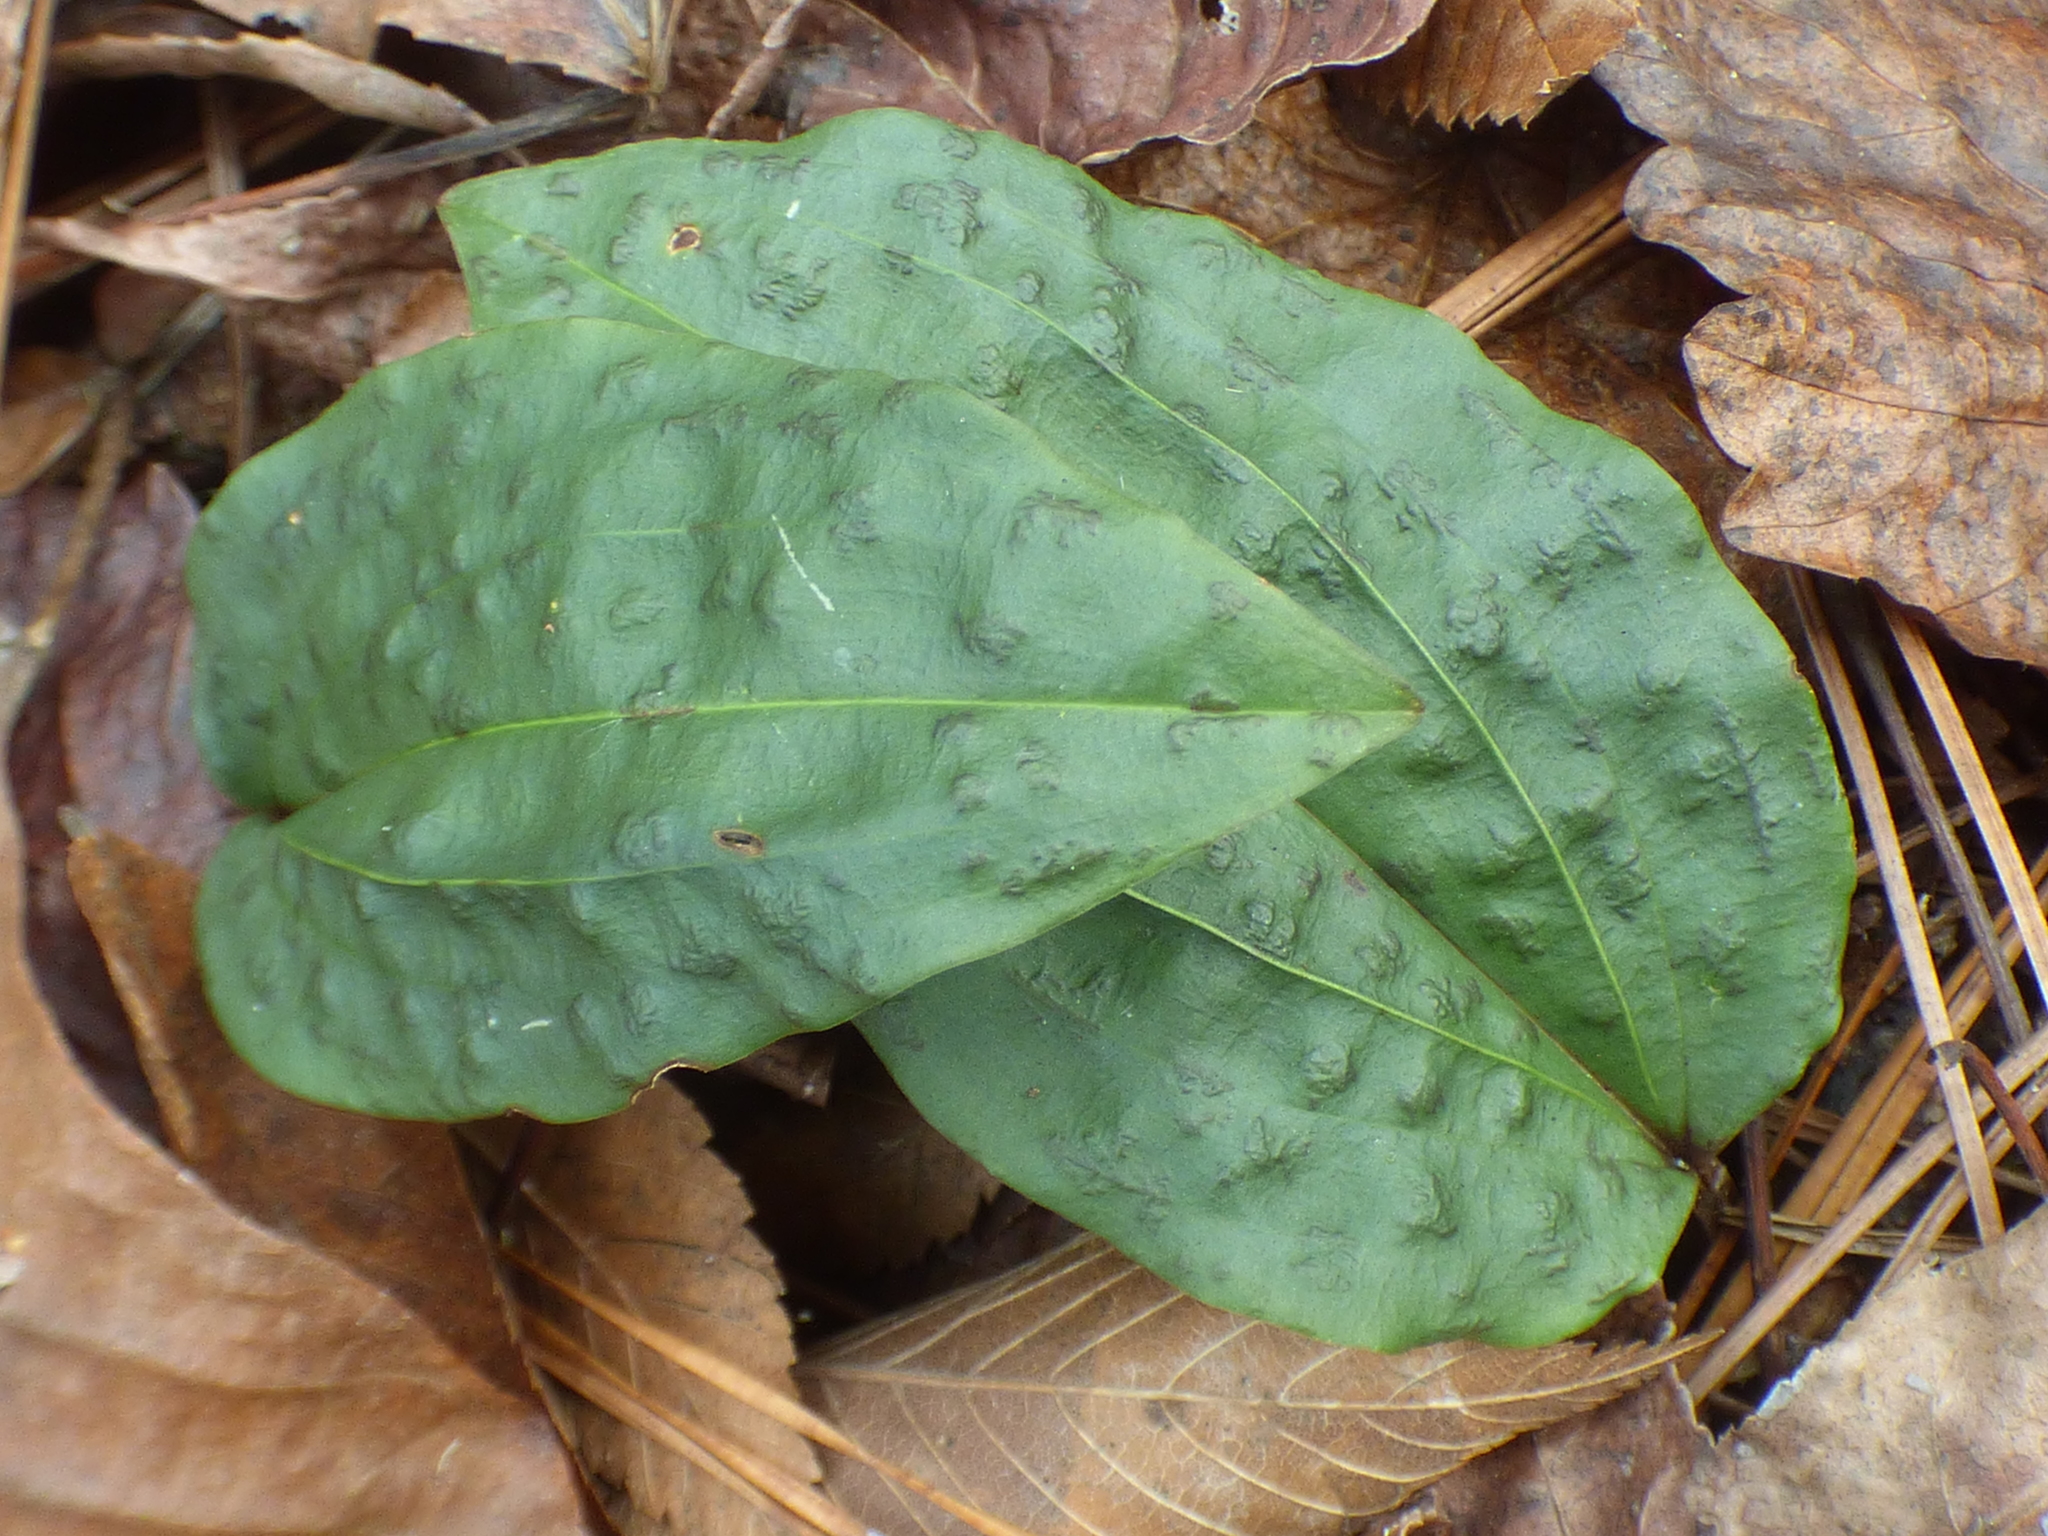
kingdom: Plantae
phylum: Tracheophyta
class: Liliopsida
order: Asparagales
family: Orchidaceae
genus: Tipularia
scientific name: Tipularia discolor
